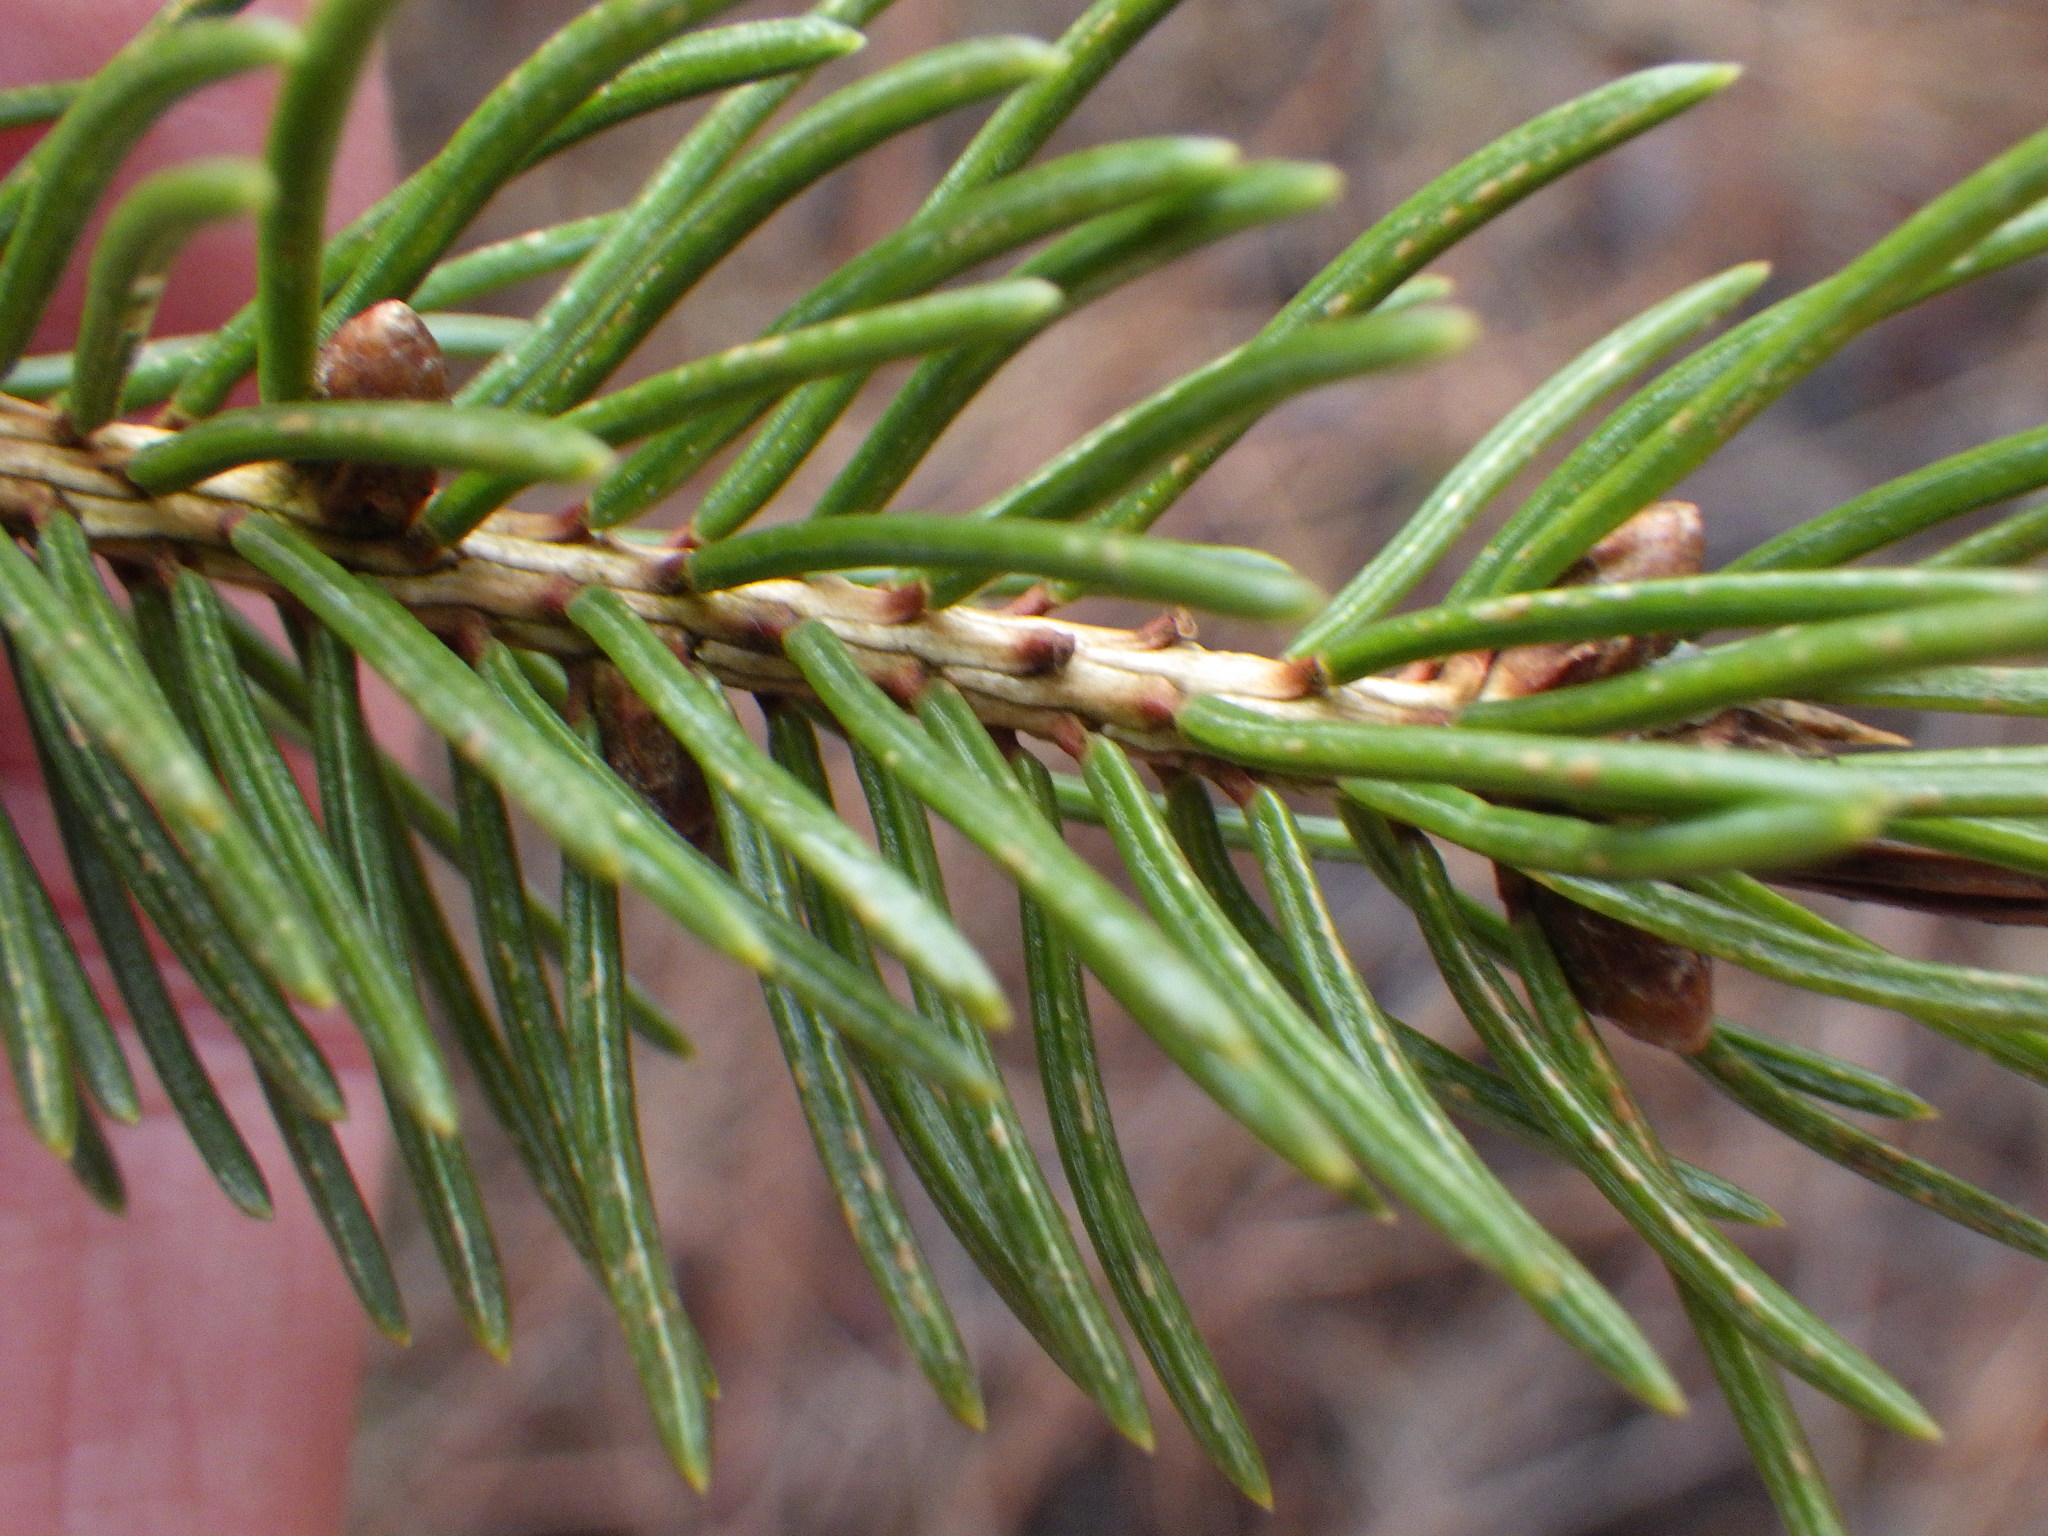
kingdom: Plantae
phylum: Tracheophyta
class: Pinopsida
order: Pinales
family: Pinaceae
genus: Picea
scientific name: Picea glauca
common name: White spruce
